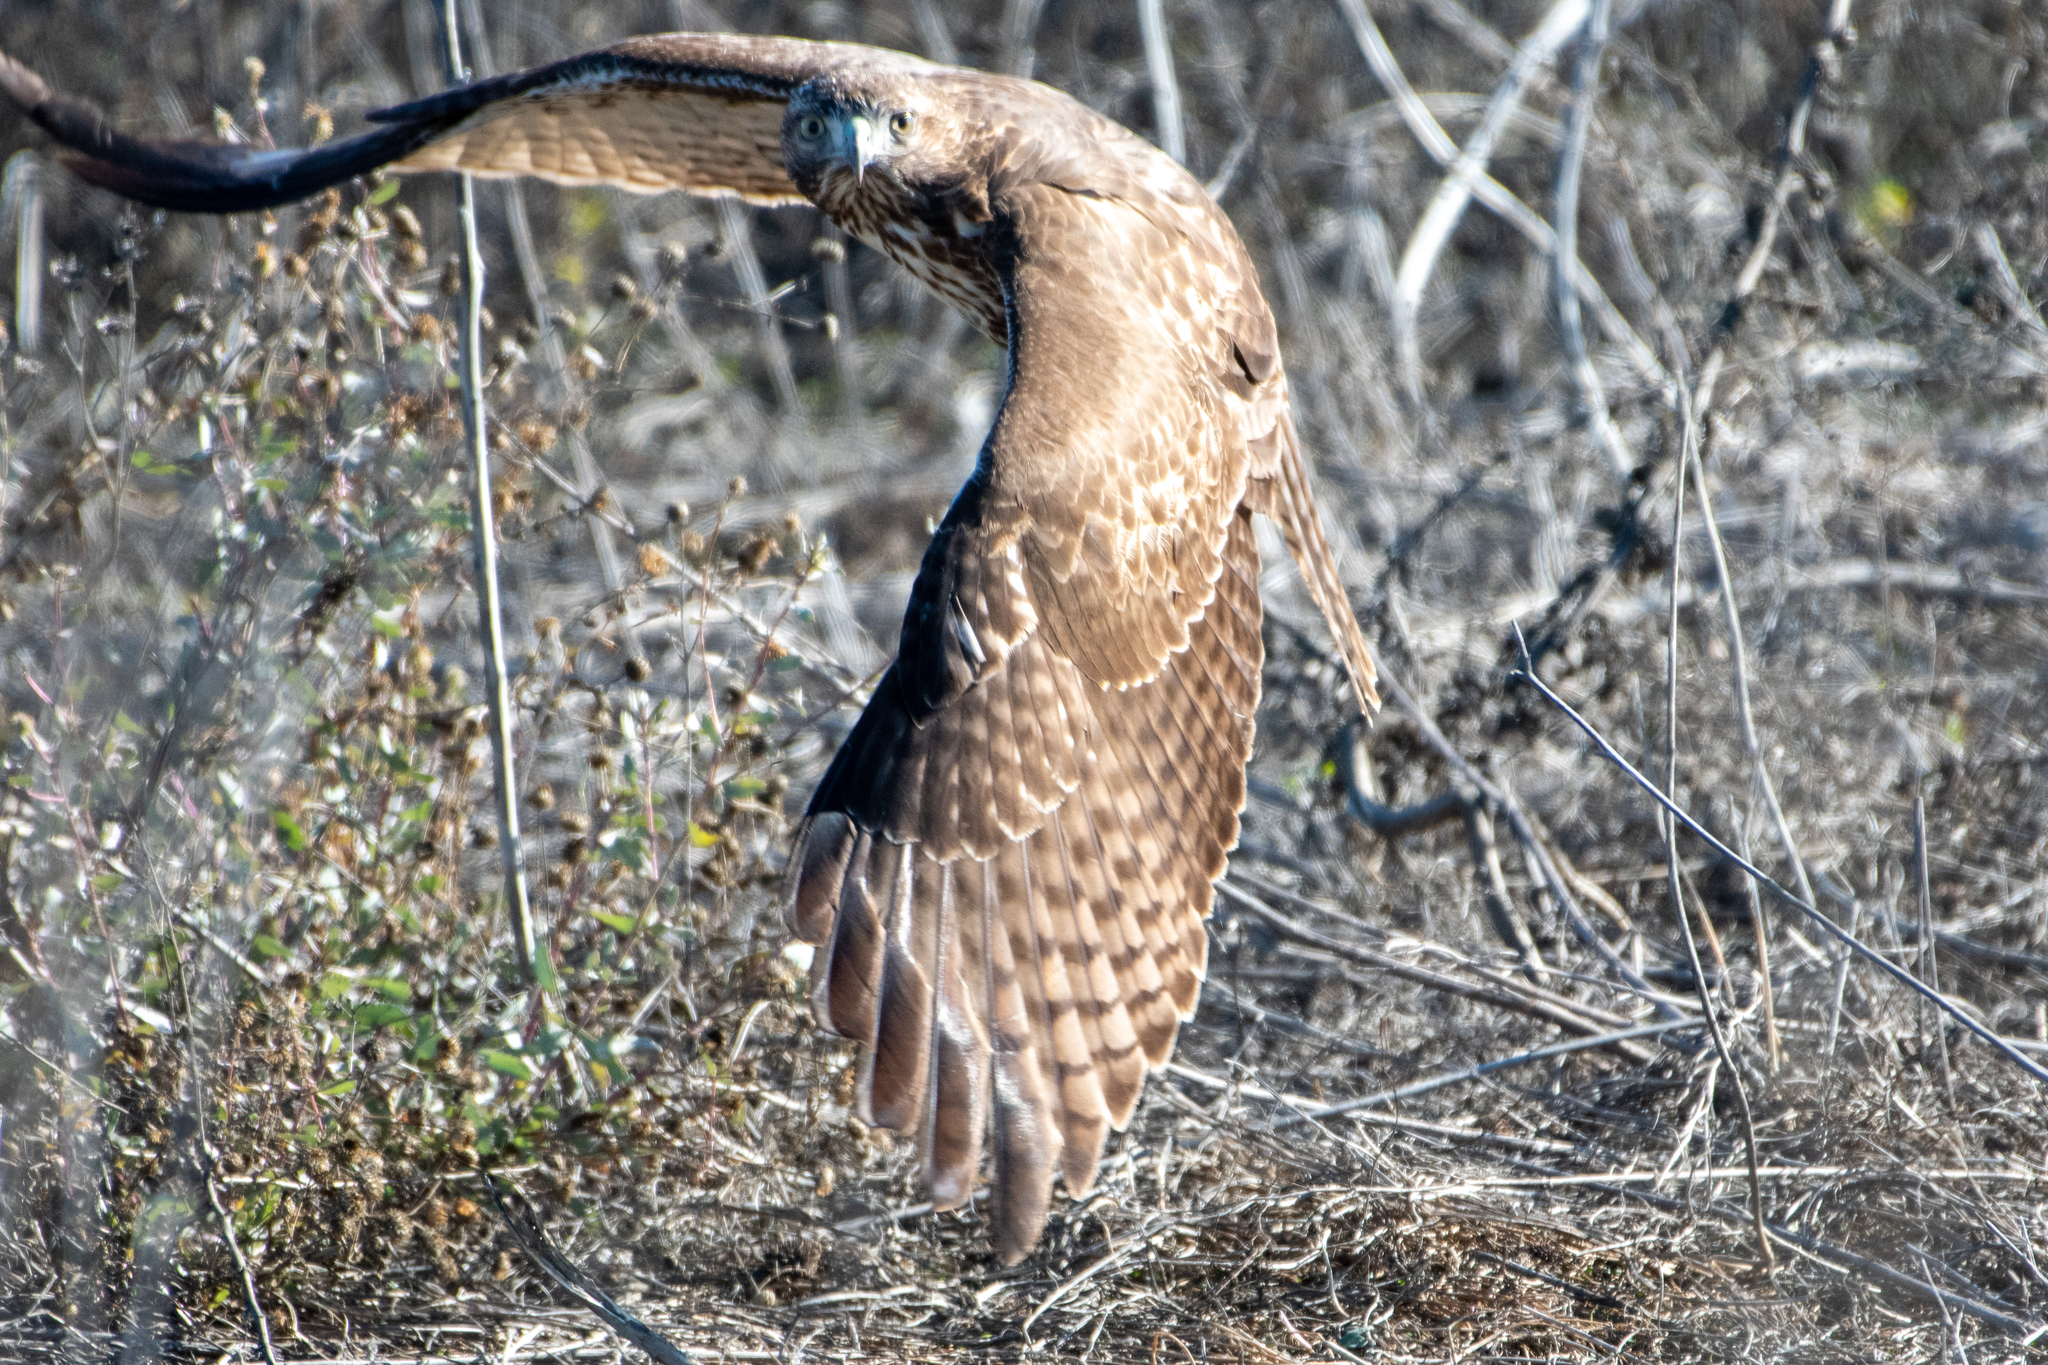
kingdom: Animalia
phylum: Chordata
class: Aves
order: Accipitriformes
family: Accipitridae
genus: Buteo
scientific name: Buteo jamaicensis
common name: Red-tailed hawk
